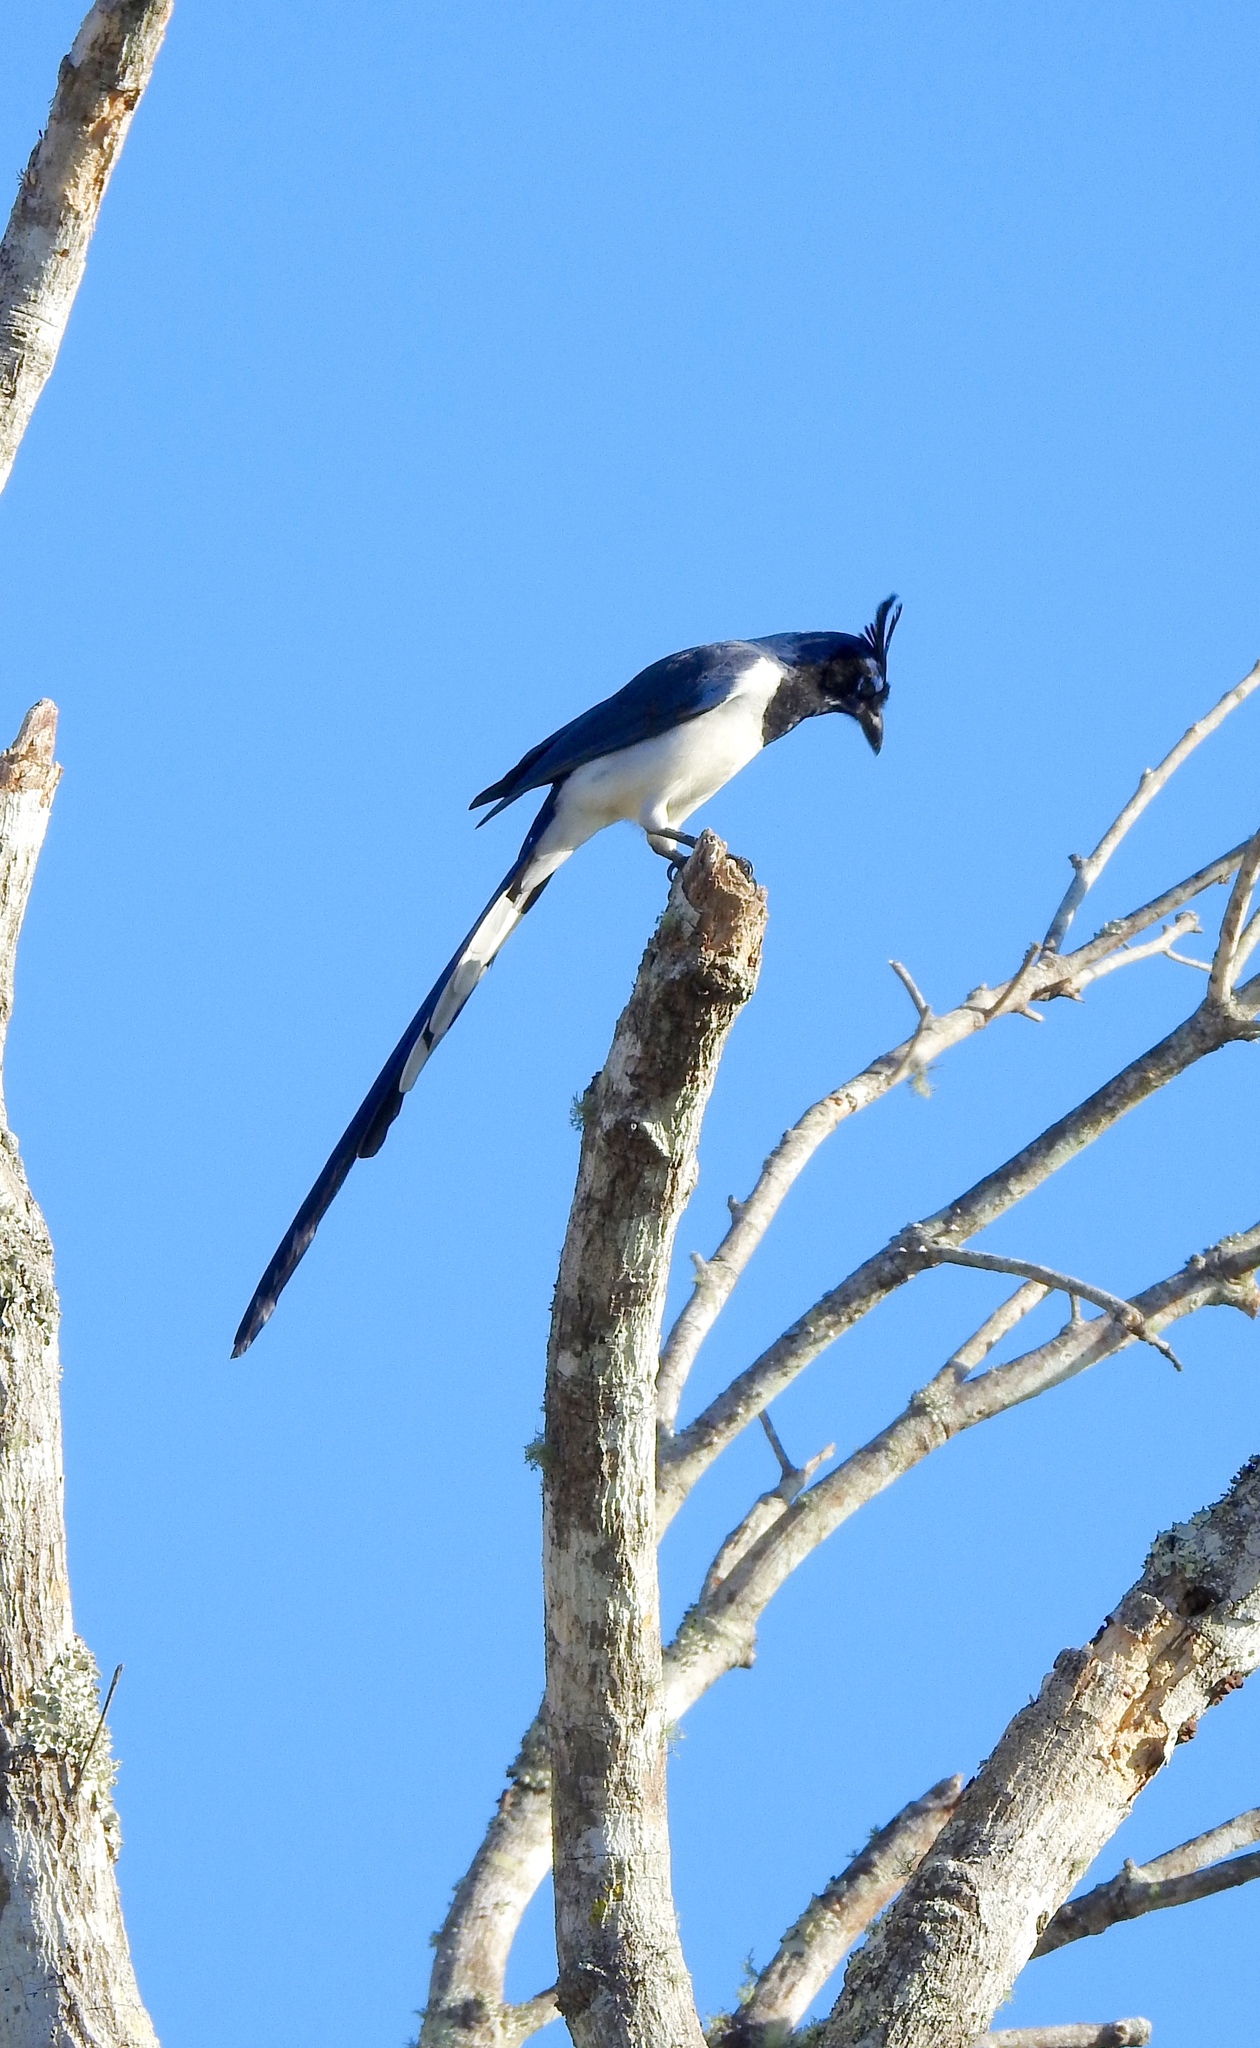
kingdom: Animalia
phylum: Chordata
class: Aves
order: Passeriformes
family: Corvidae
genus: Calocitta
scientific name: Calocitta colliei
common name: Black-throated magpie-jay
